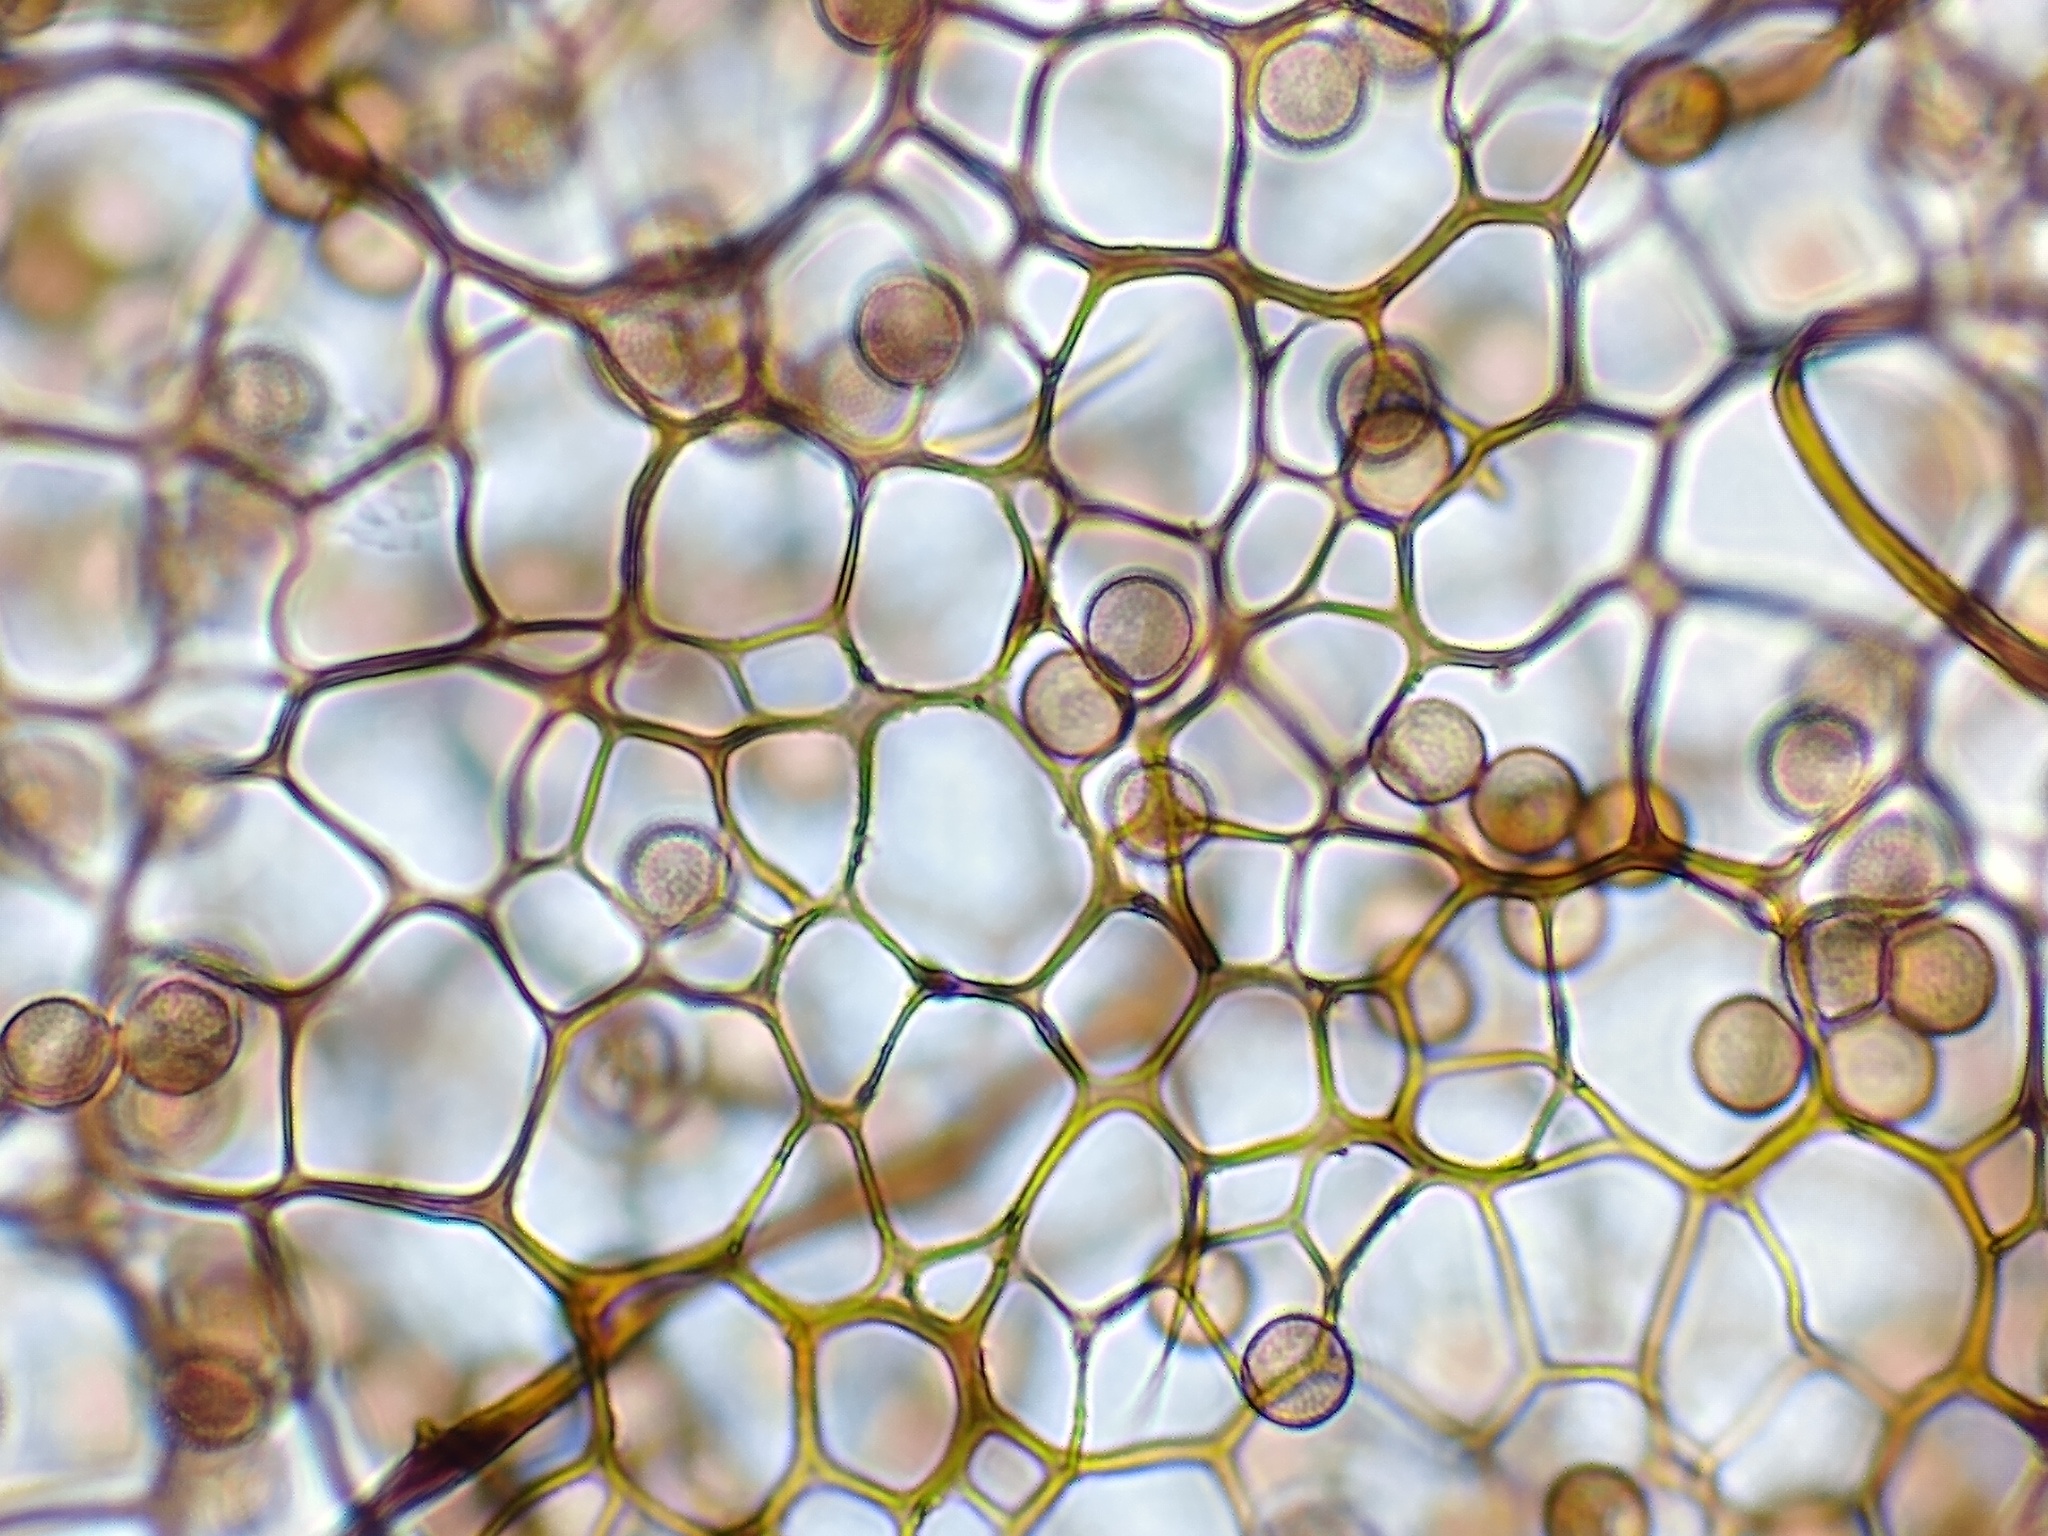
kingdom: Protozoa
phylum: Mycetozoa
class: Myxomycetes
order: Stemonitidales
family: Stemonitidaceae
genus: Stemonitis
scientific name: Stemonitis splendens
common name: Chocolate tube slime
